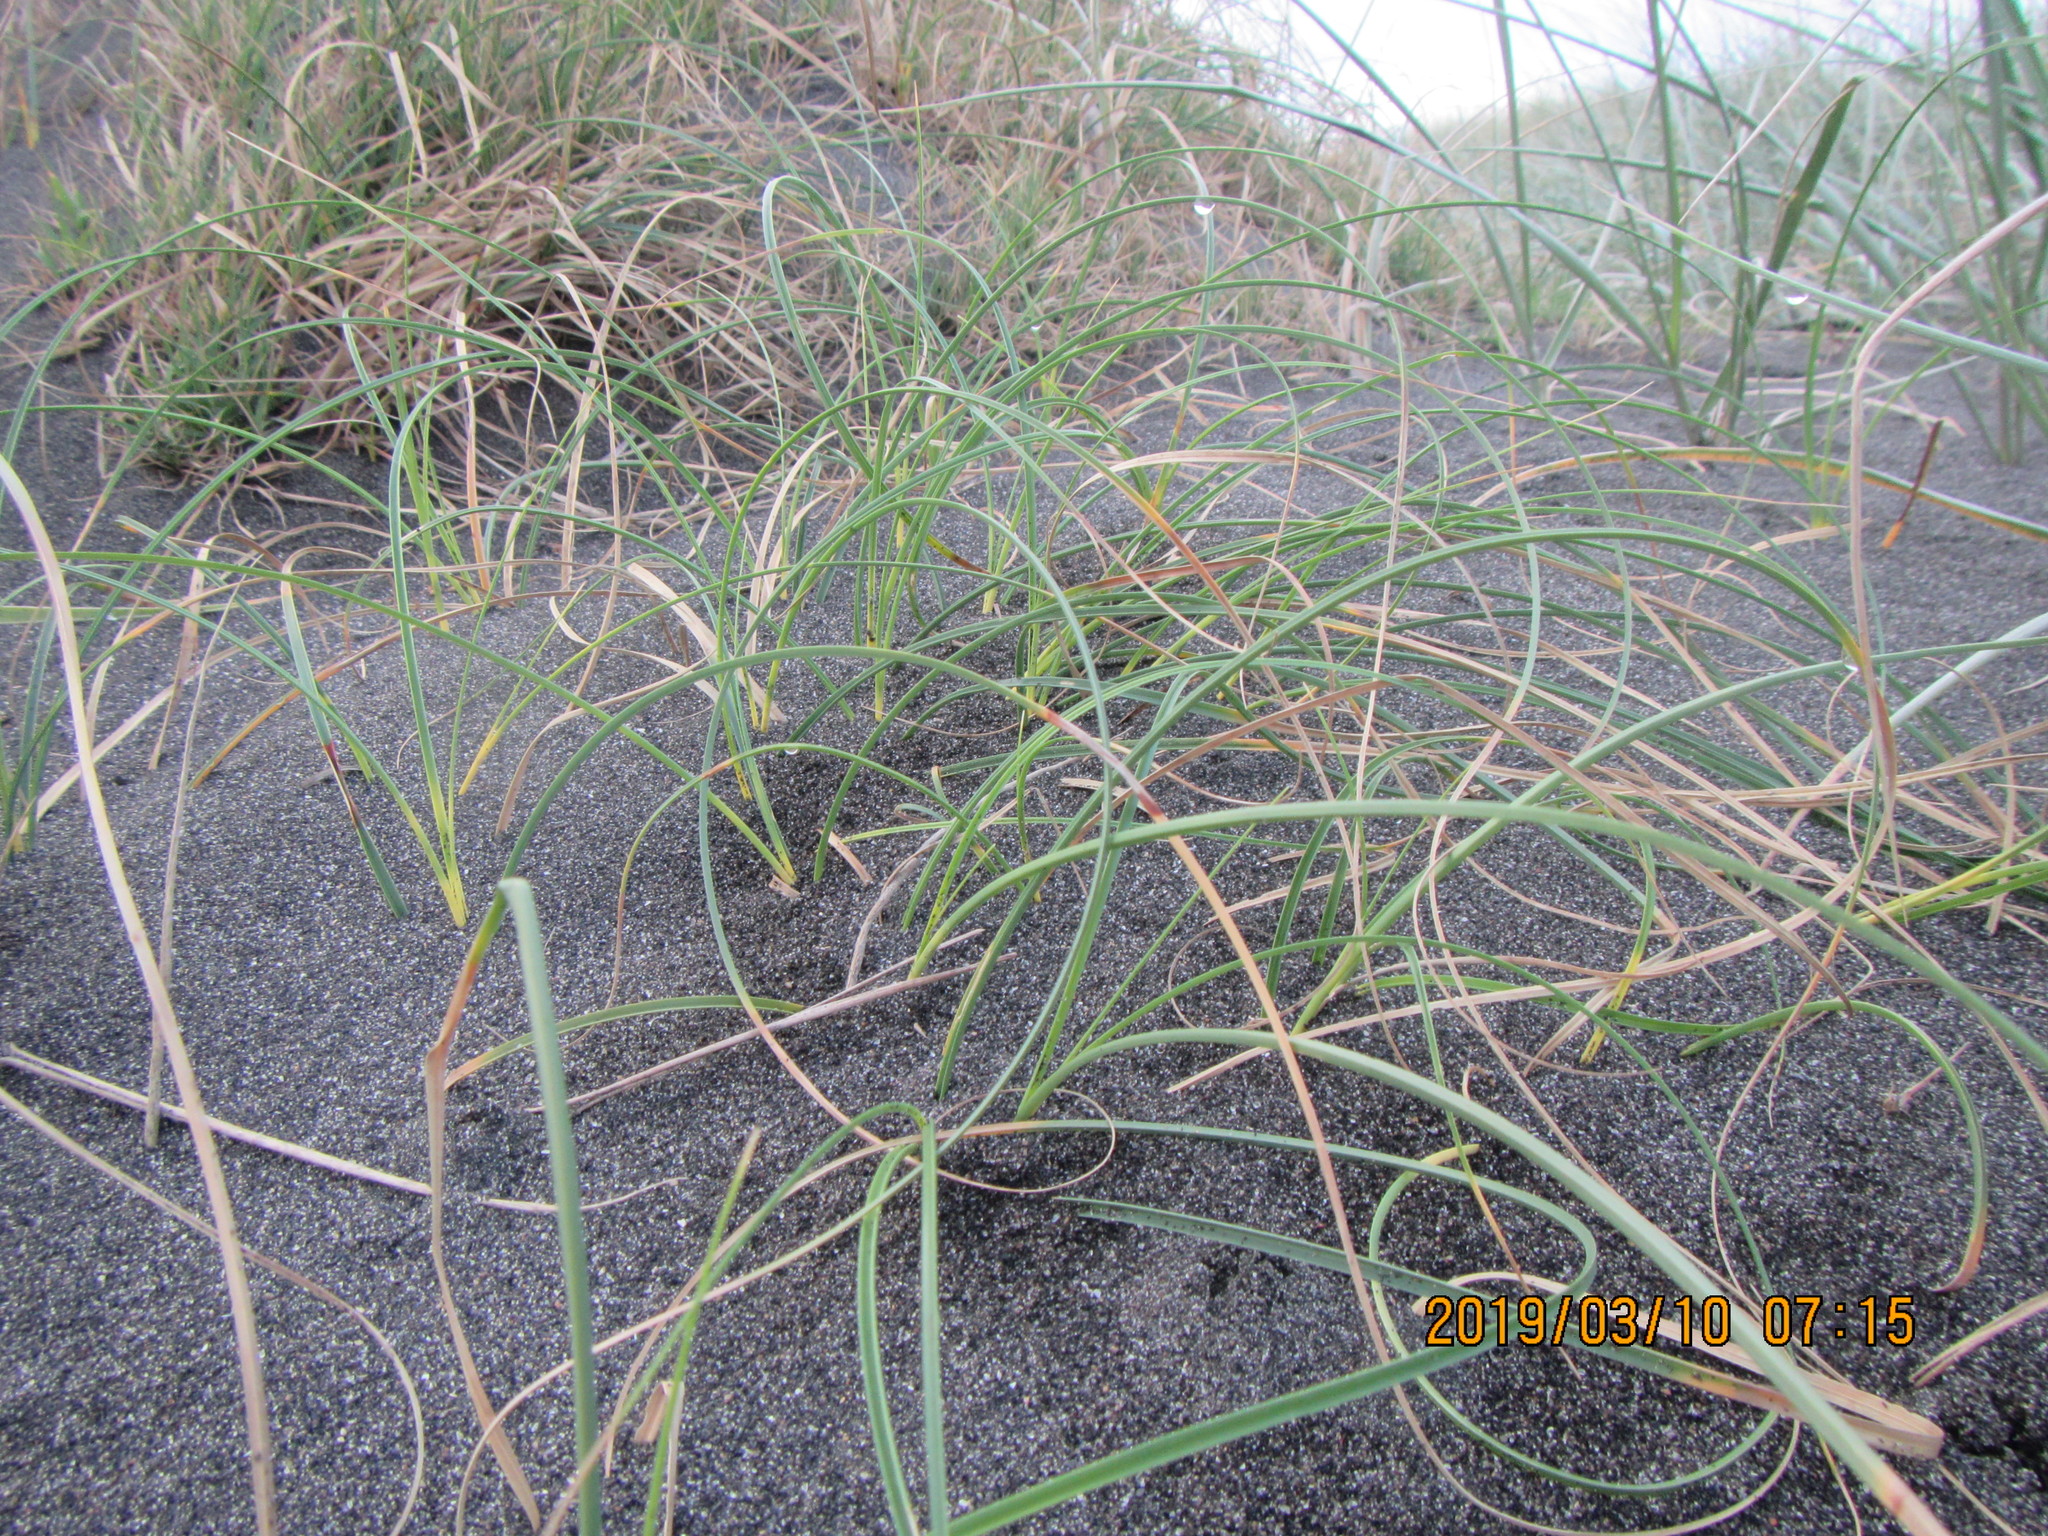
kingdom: Plantae
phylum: Tracheophyta
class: Liliopsida
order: Poales
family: Cyperaceae
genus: Carex
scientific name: Carex pumila
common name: Dwarf sedge
